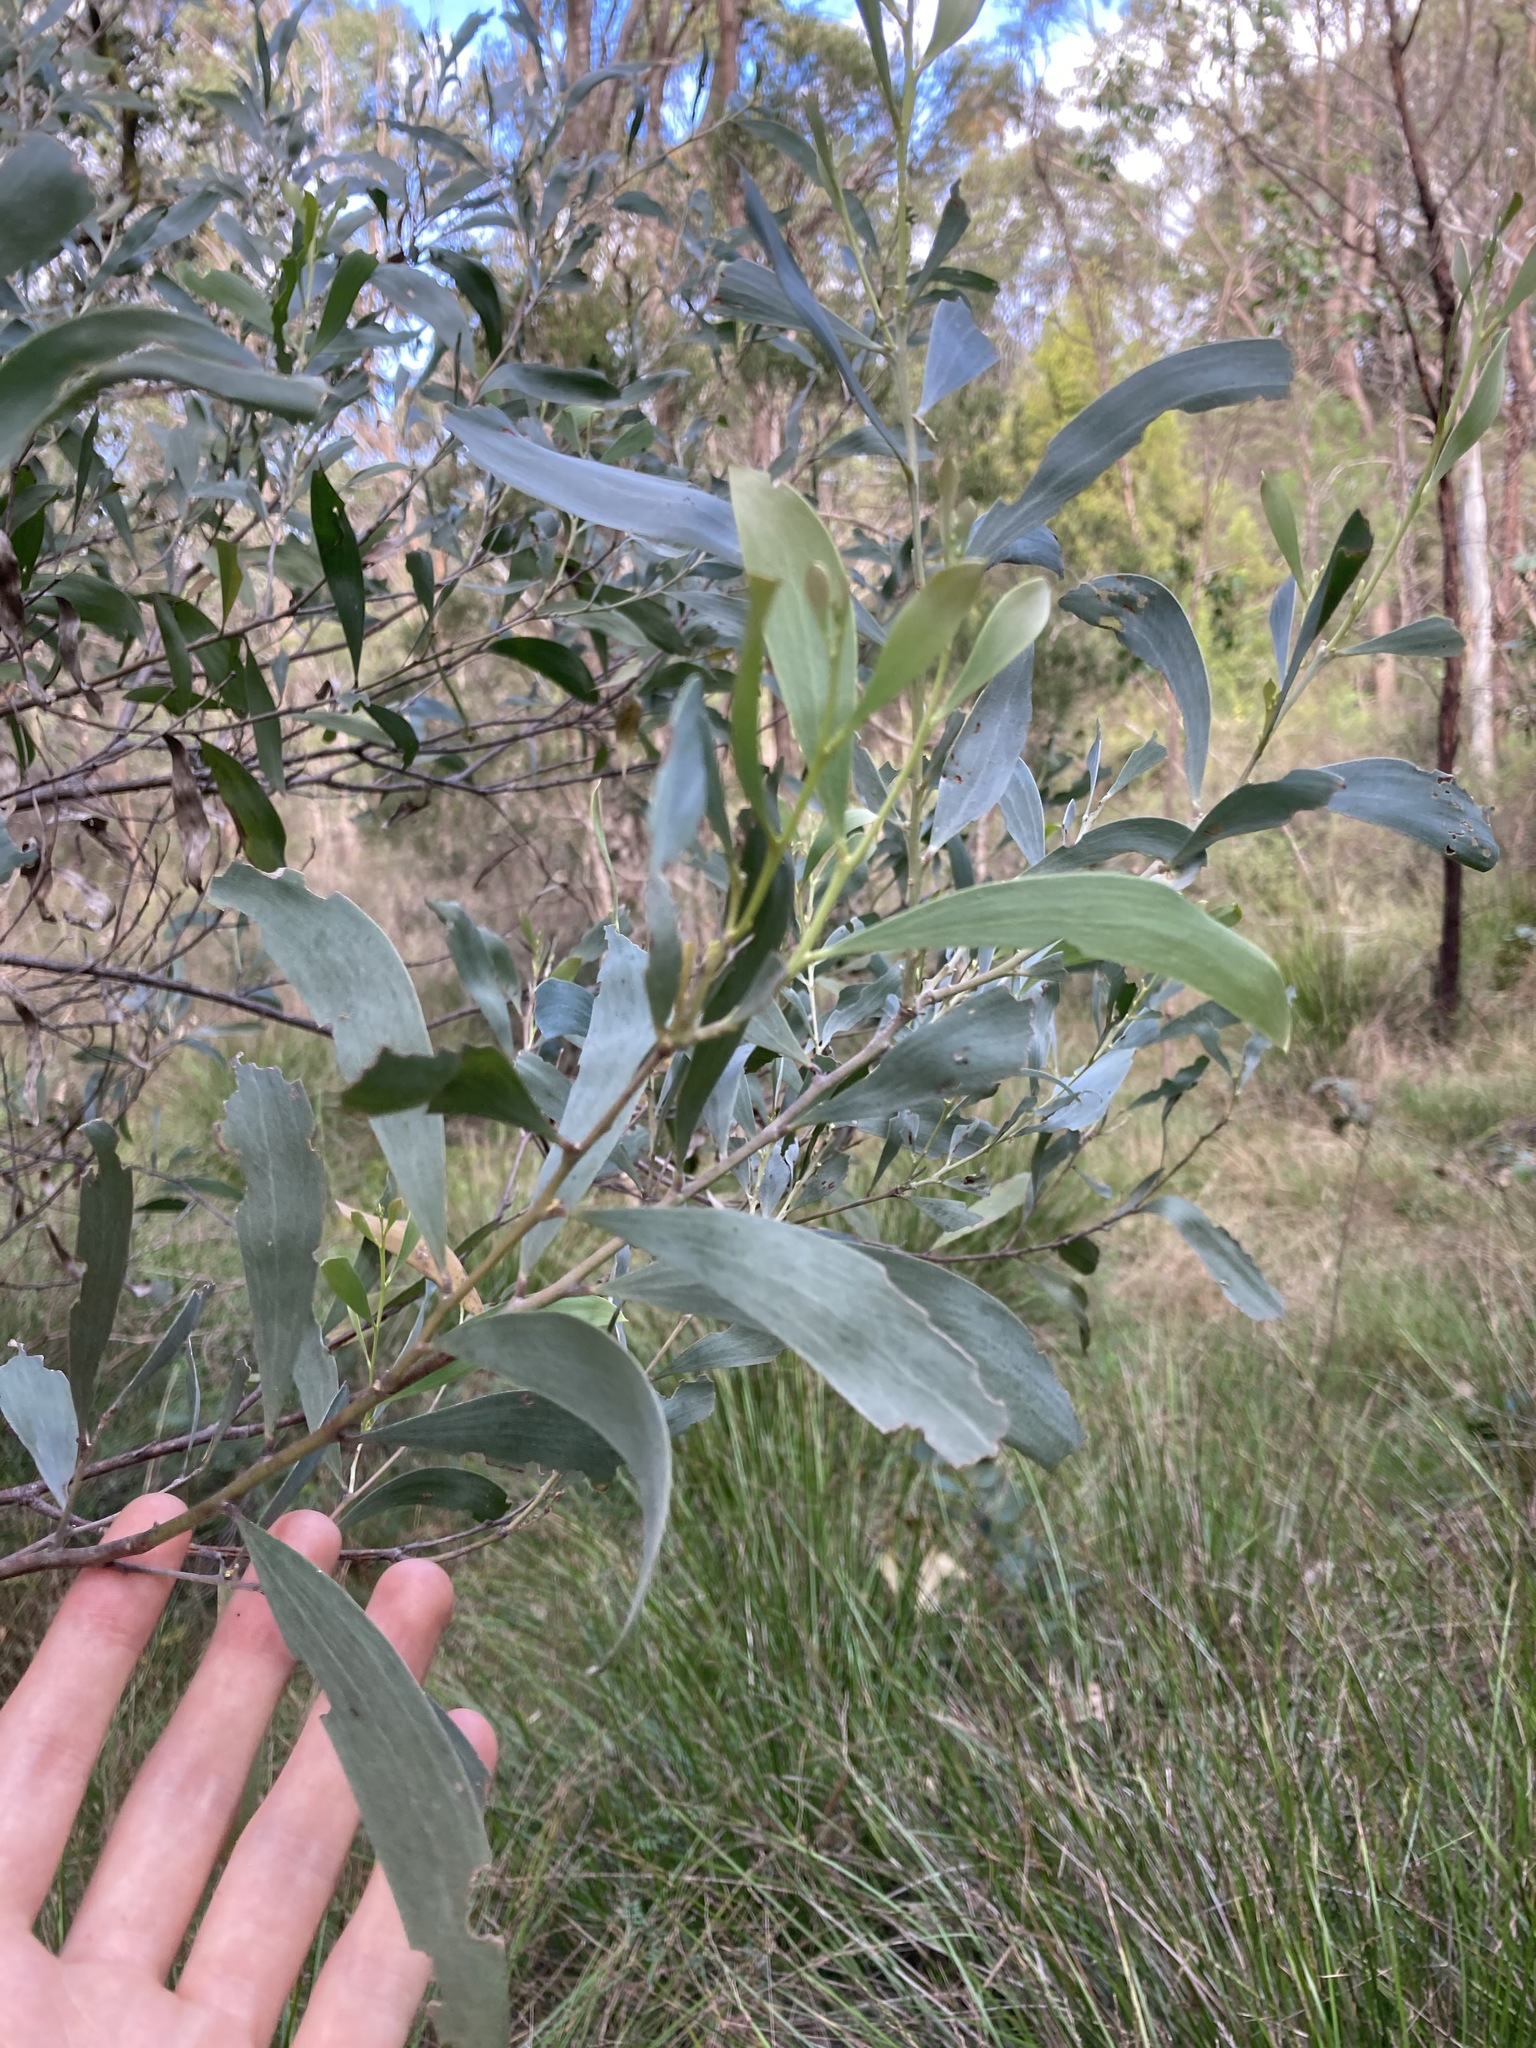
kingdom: Plantae
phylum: Tracheophyta
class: Magnoliopsida
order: Fabales
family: Fabaceae
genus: Acacia
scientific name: Acacia binervia
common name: Coast myall
